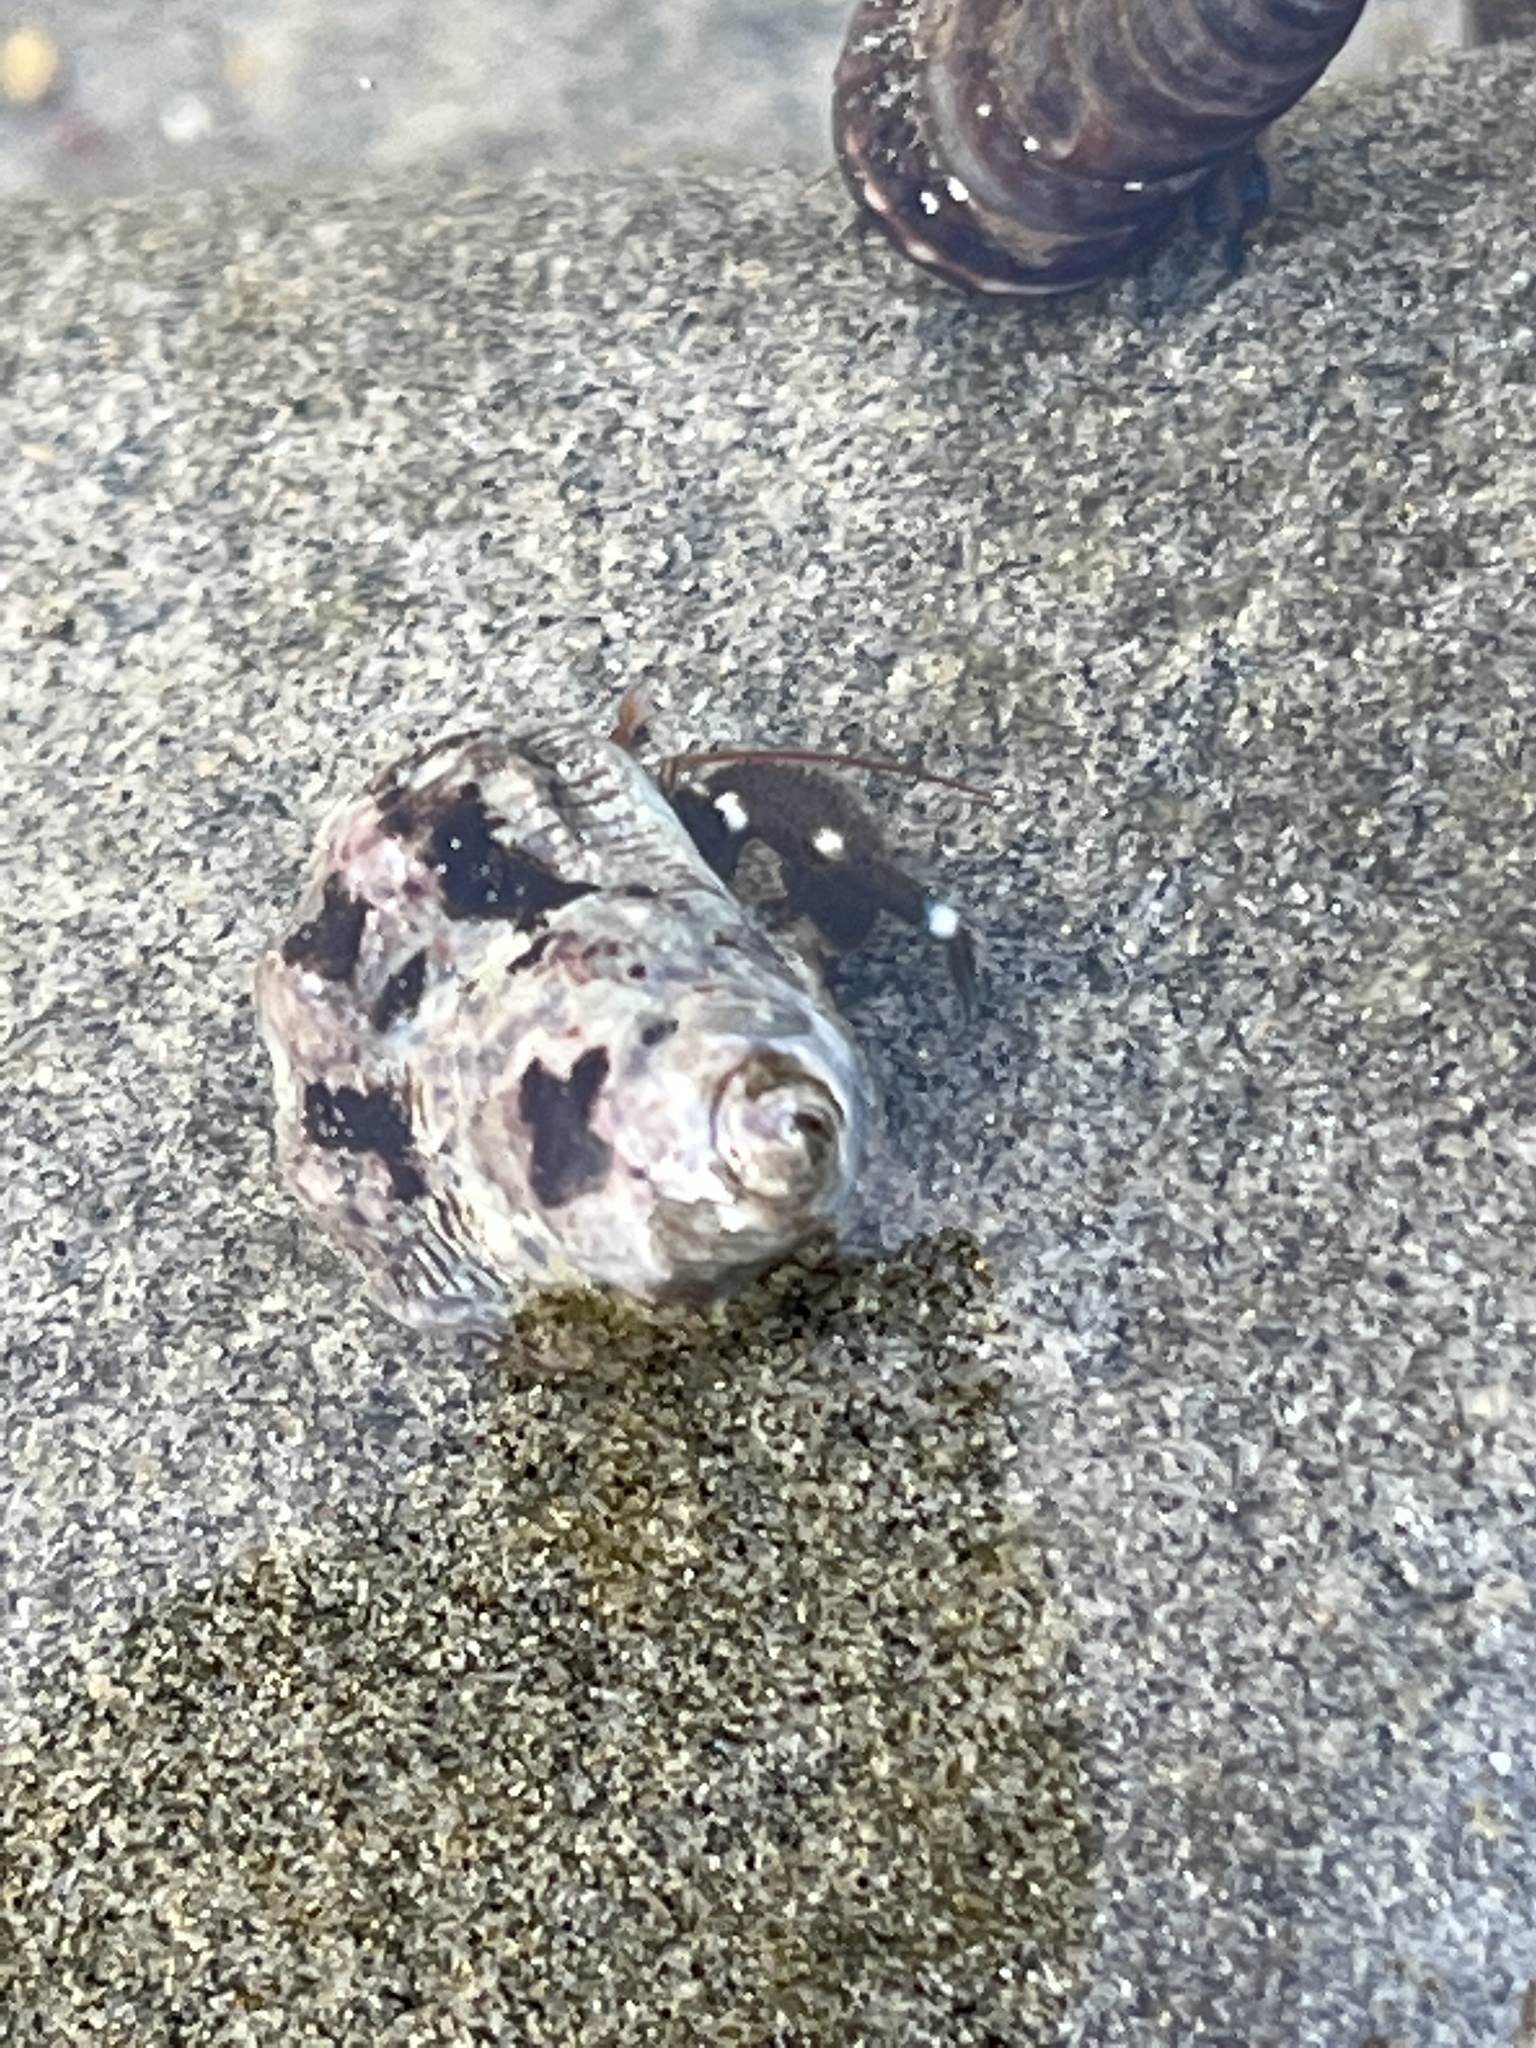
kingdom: Animalia
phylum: Arthropoda
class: Malacostraca
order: Decapoda
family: Paguridae
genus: Pagurus
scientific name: Pagurus samuelis
